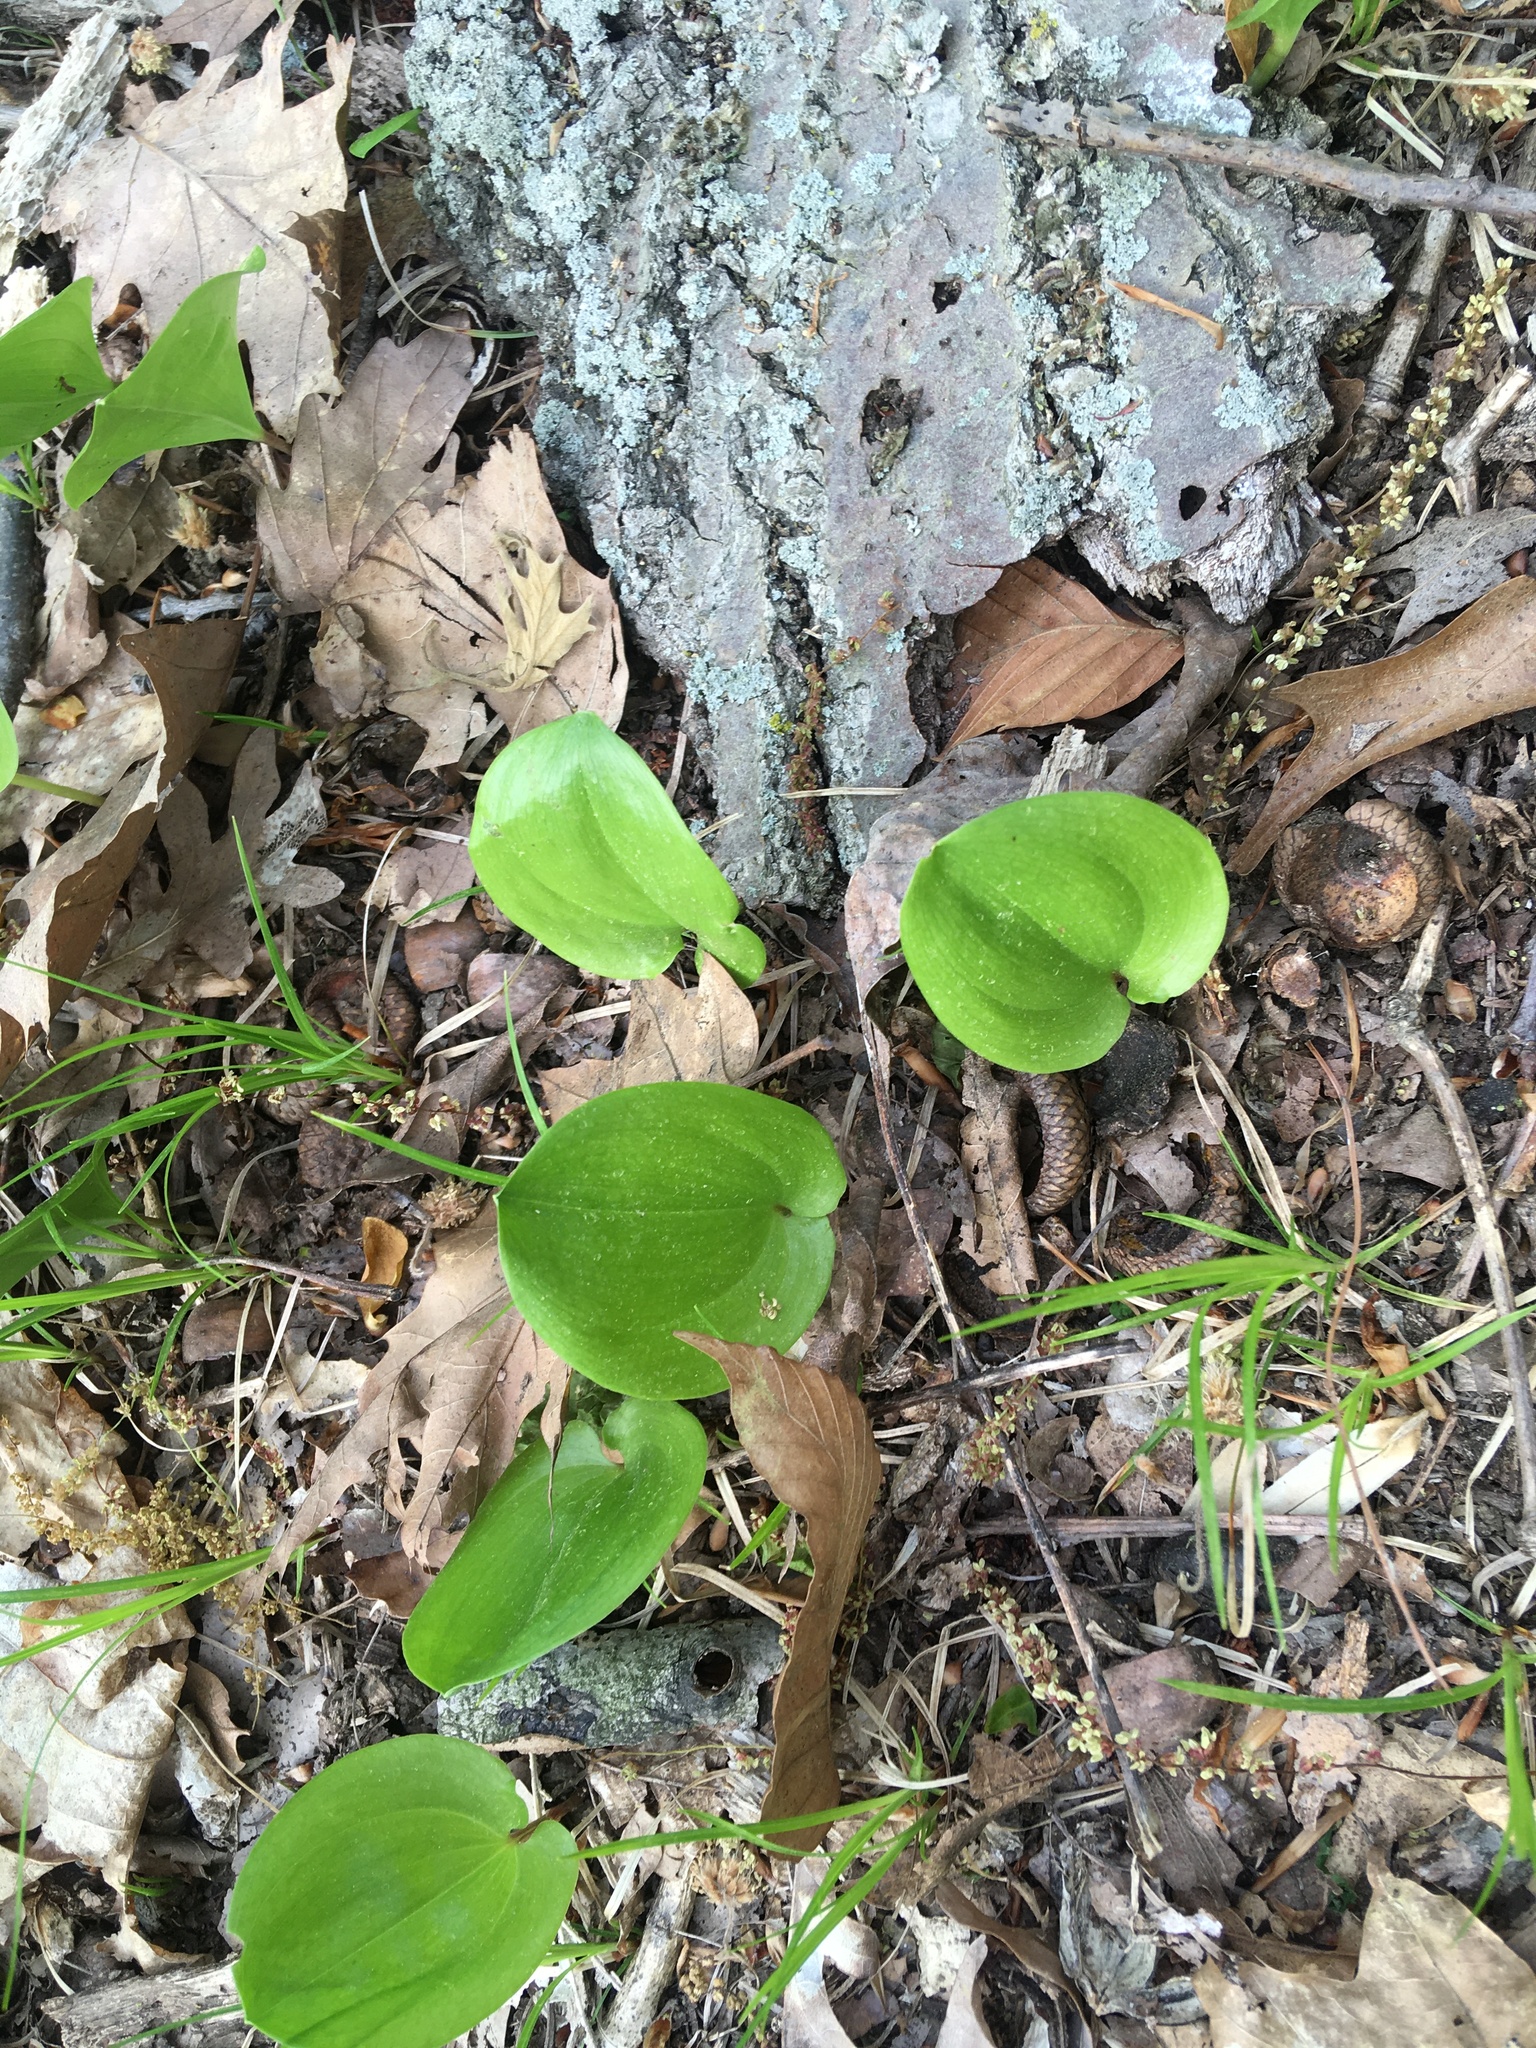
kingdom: Plantae
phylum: Tracheophyta
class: Liliopsida
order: Asparagales
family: Asparagaceae
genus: Maianthemum
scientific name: Maianthemum canadense
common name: False lily-of-the-valley
